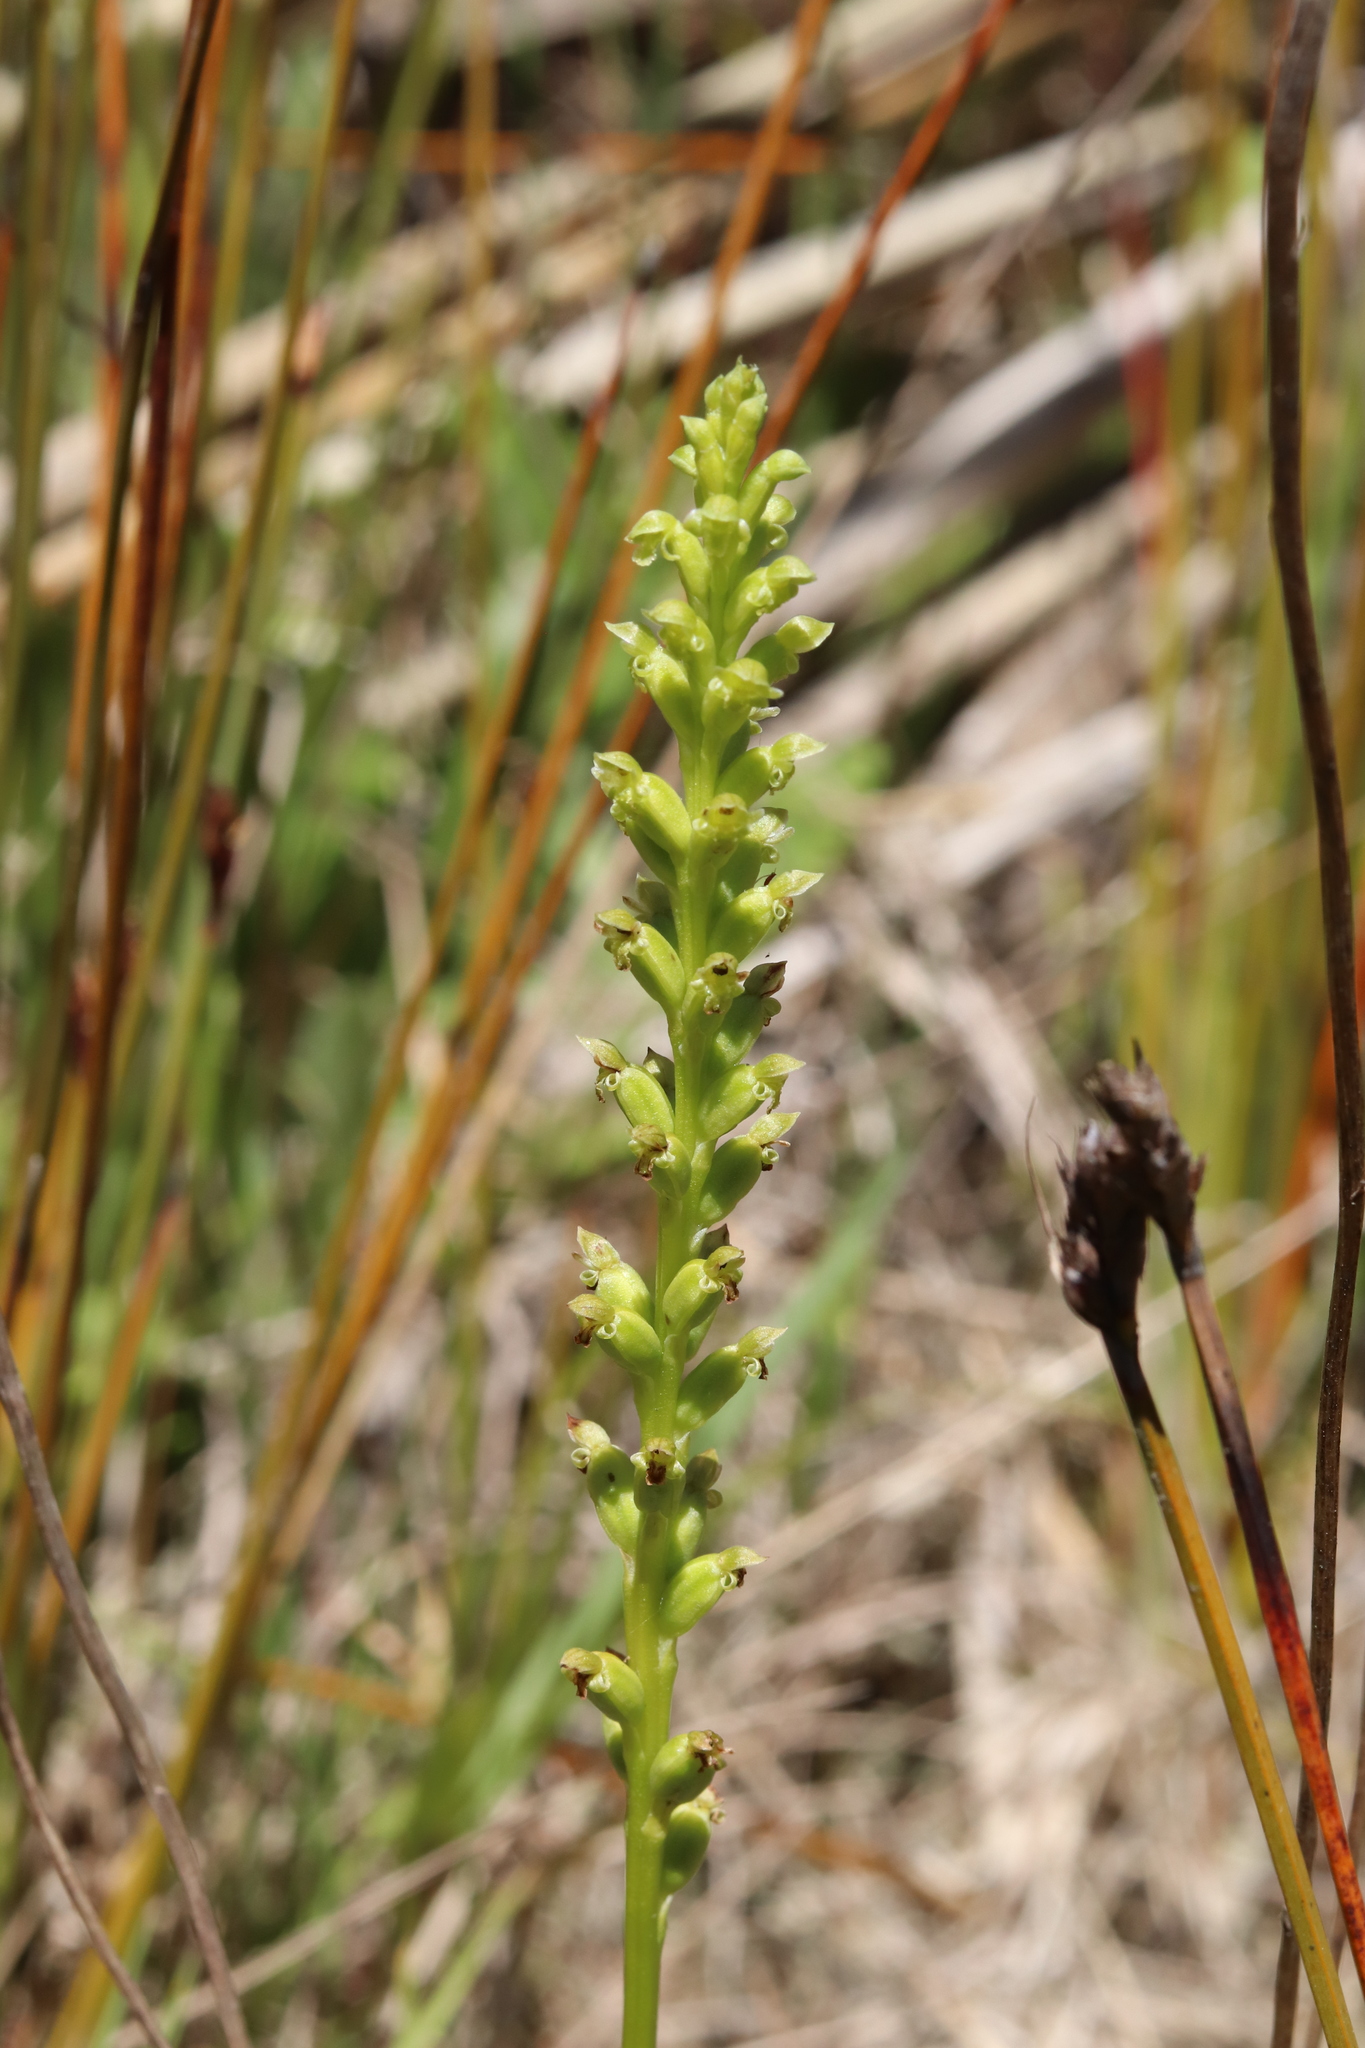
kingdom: Plantae
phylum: Tracheophyta
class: Liliopsida
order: Asparagales
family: Orchidaceae
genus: Microtis
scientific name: Microtis unifolia
